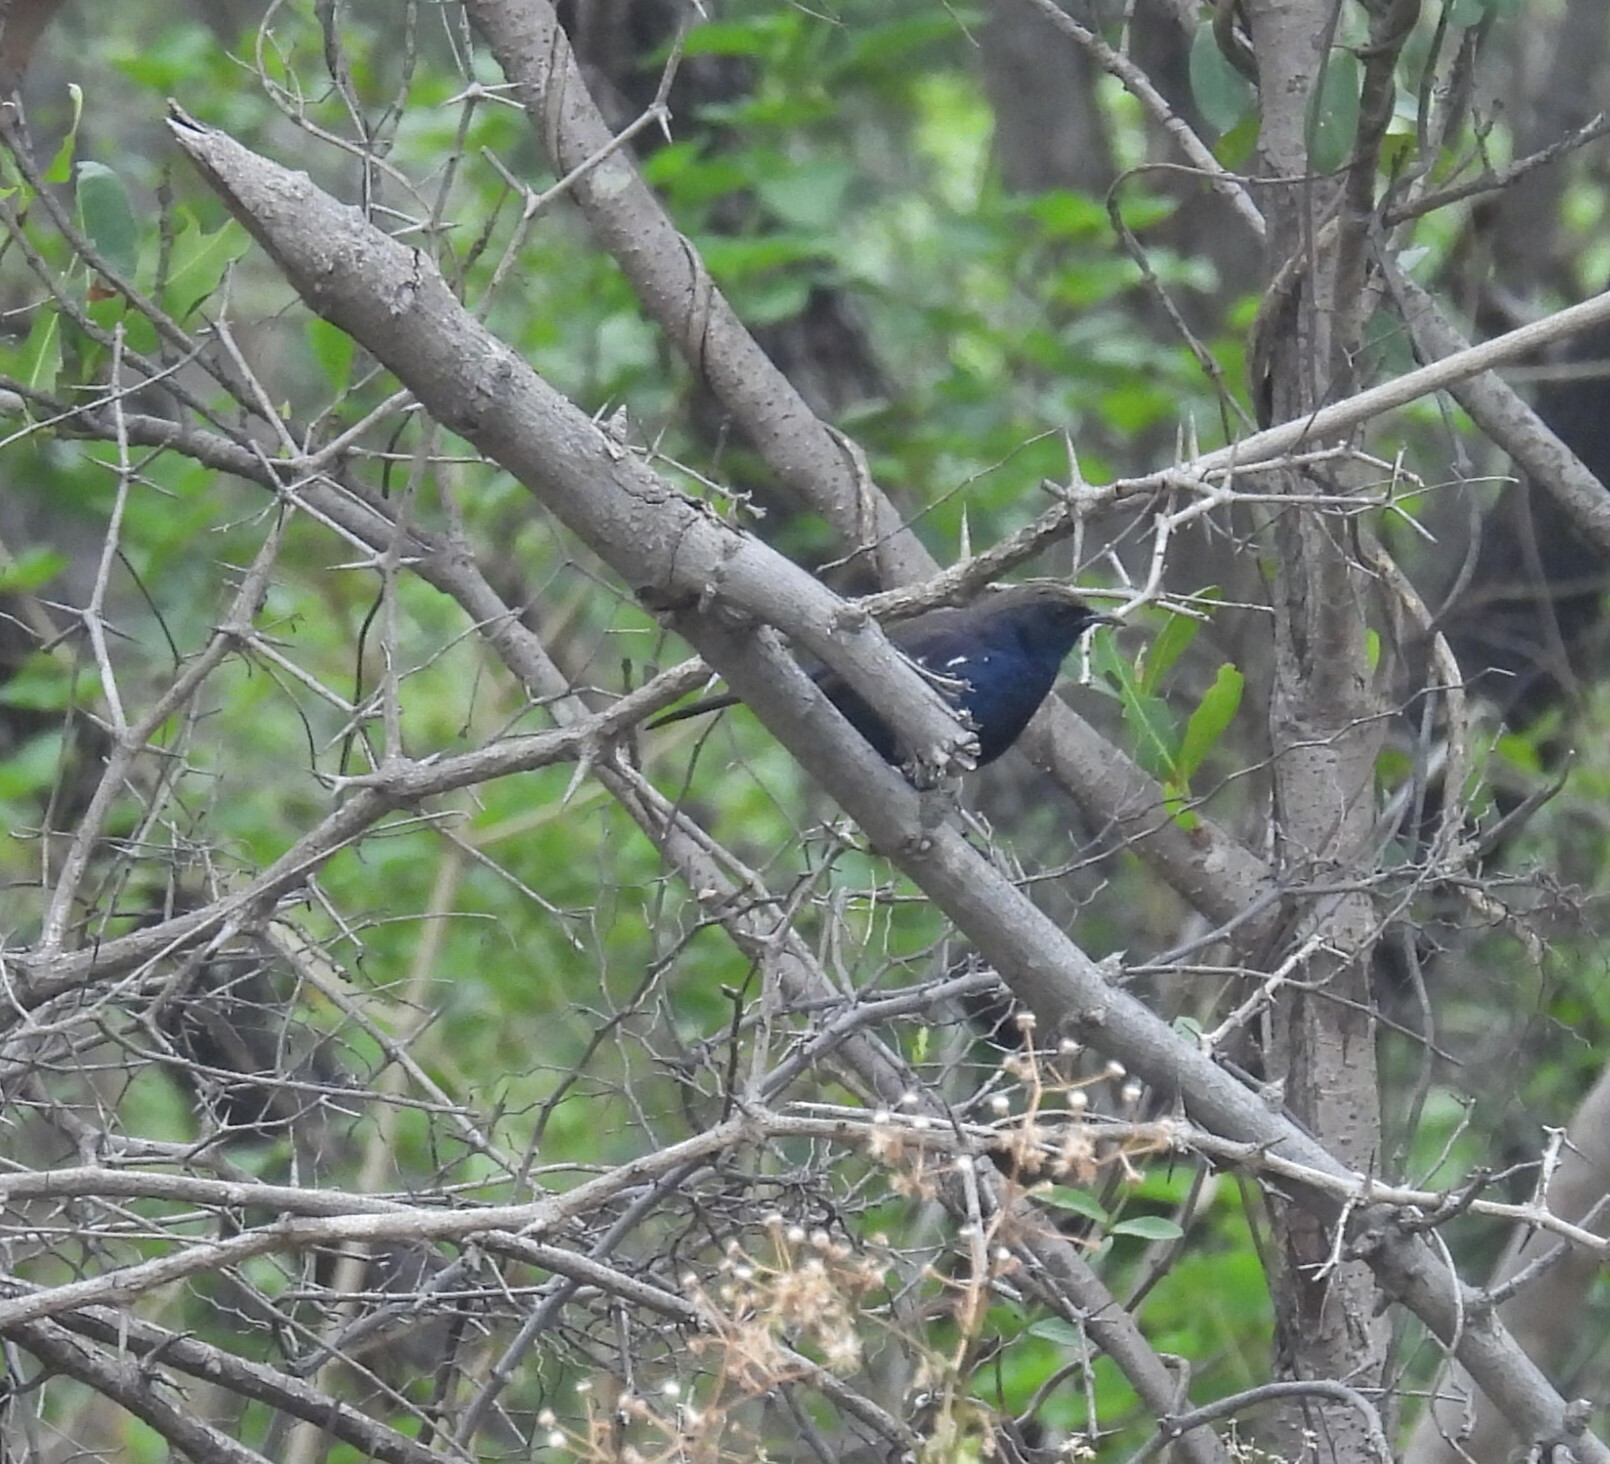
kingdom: Animalia
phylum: Chordata
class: Aves
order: Passeriformes
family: Muscicapidae
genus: Saxicoloides
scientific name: Saxicoloides fulicatus
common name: Indian robin
